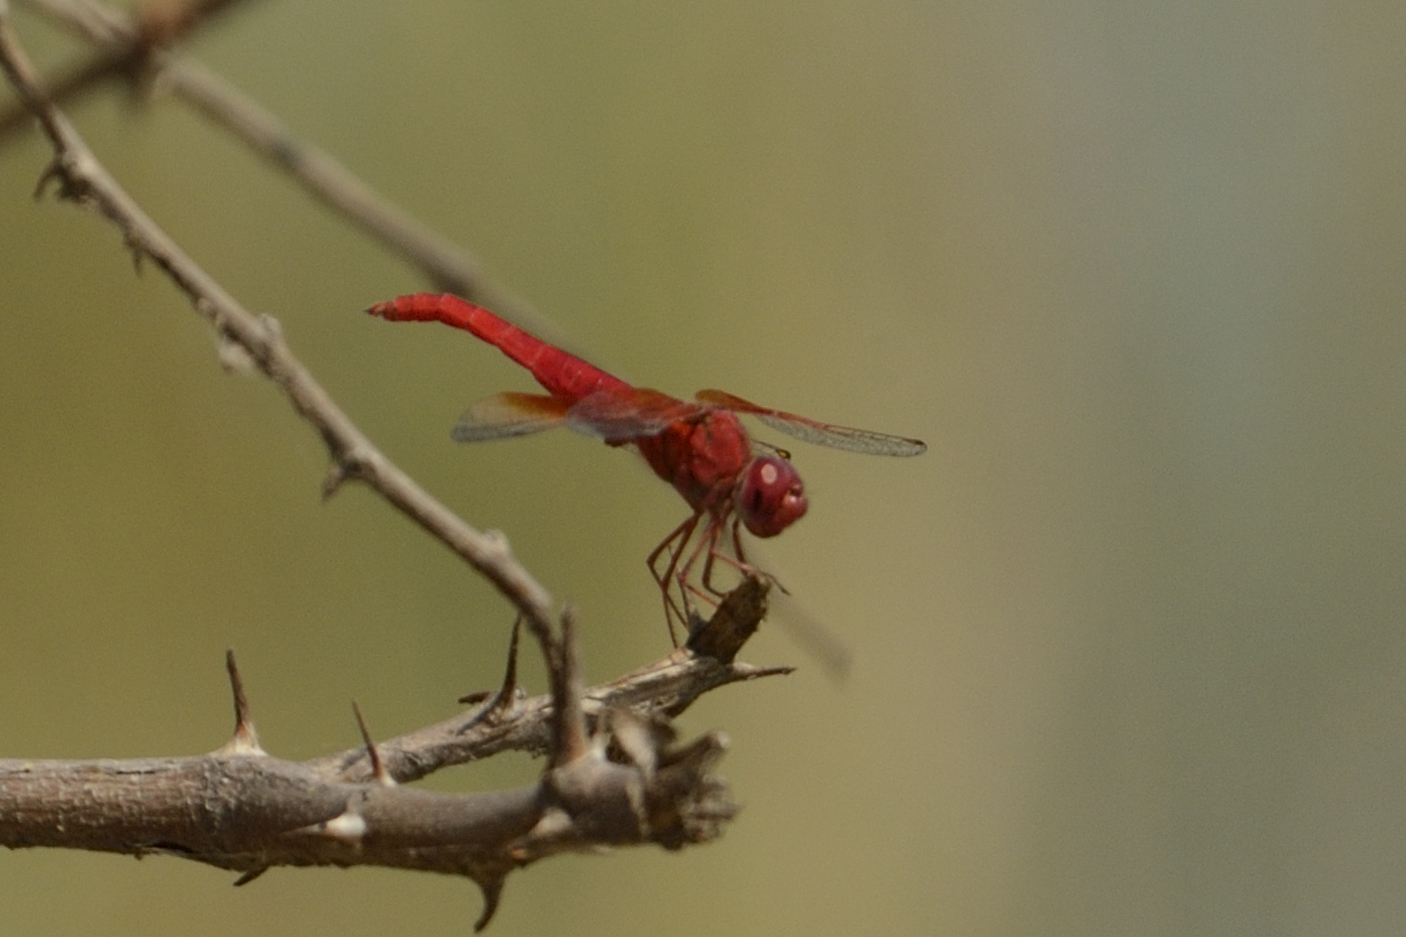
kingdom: Animalia
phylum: Arthropoda
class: Insecta
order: Odonata
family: Libellulidae
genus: Brachythemis
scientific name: Brachythemis lacustris
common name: Red groundling
